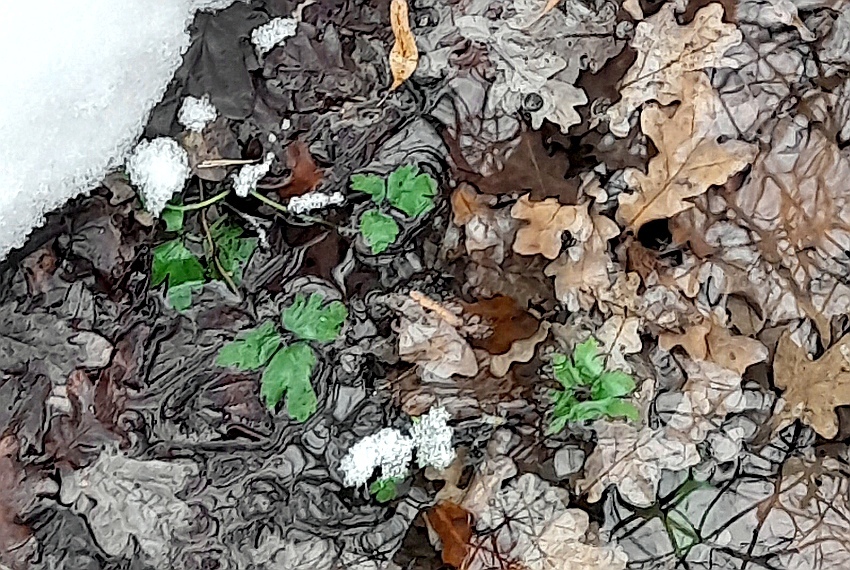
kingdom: Plantae
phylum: Tracheophyta
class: Magnoliopsida
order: Ranunculales
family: Ranunculaceae
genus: Ranunculus
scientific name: Ranunculus repens
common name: Creeping buttercup
